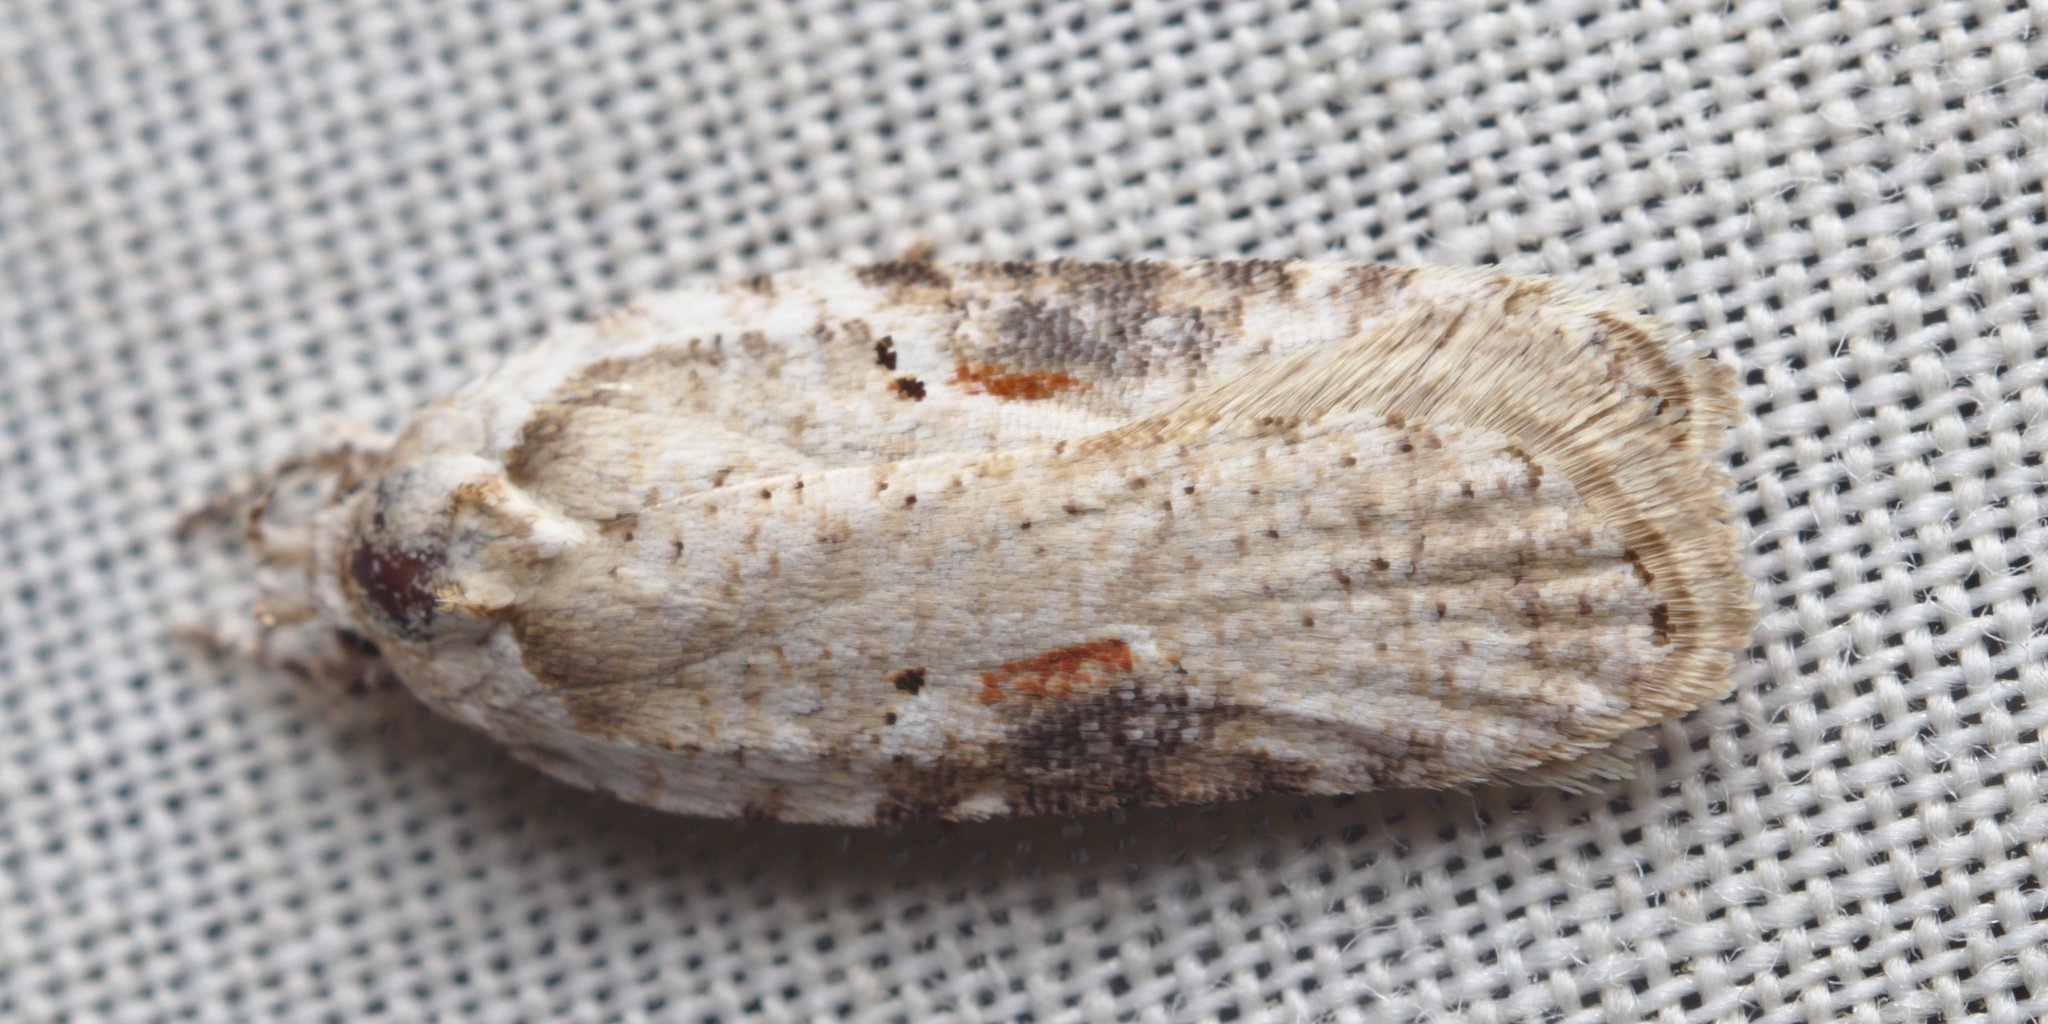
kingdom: Animalia
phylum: Arthropoda
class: Insecta
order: Lepidoptera
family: Depressariidae
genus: Agonopterix
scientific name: Agonopterix alstroemeriana
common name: Moth
